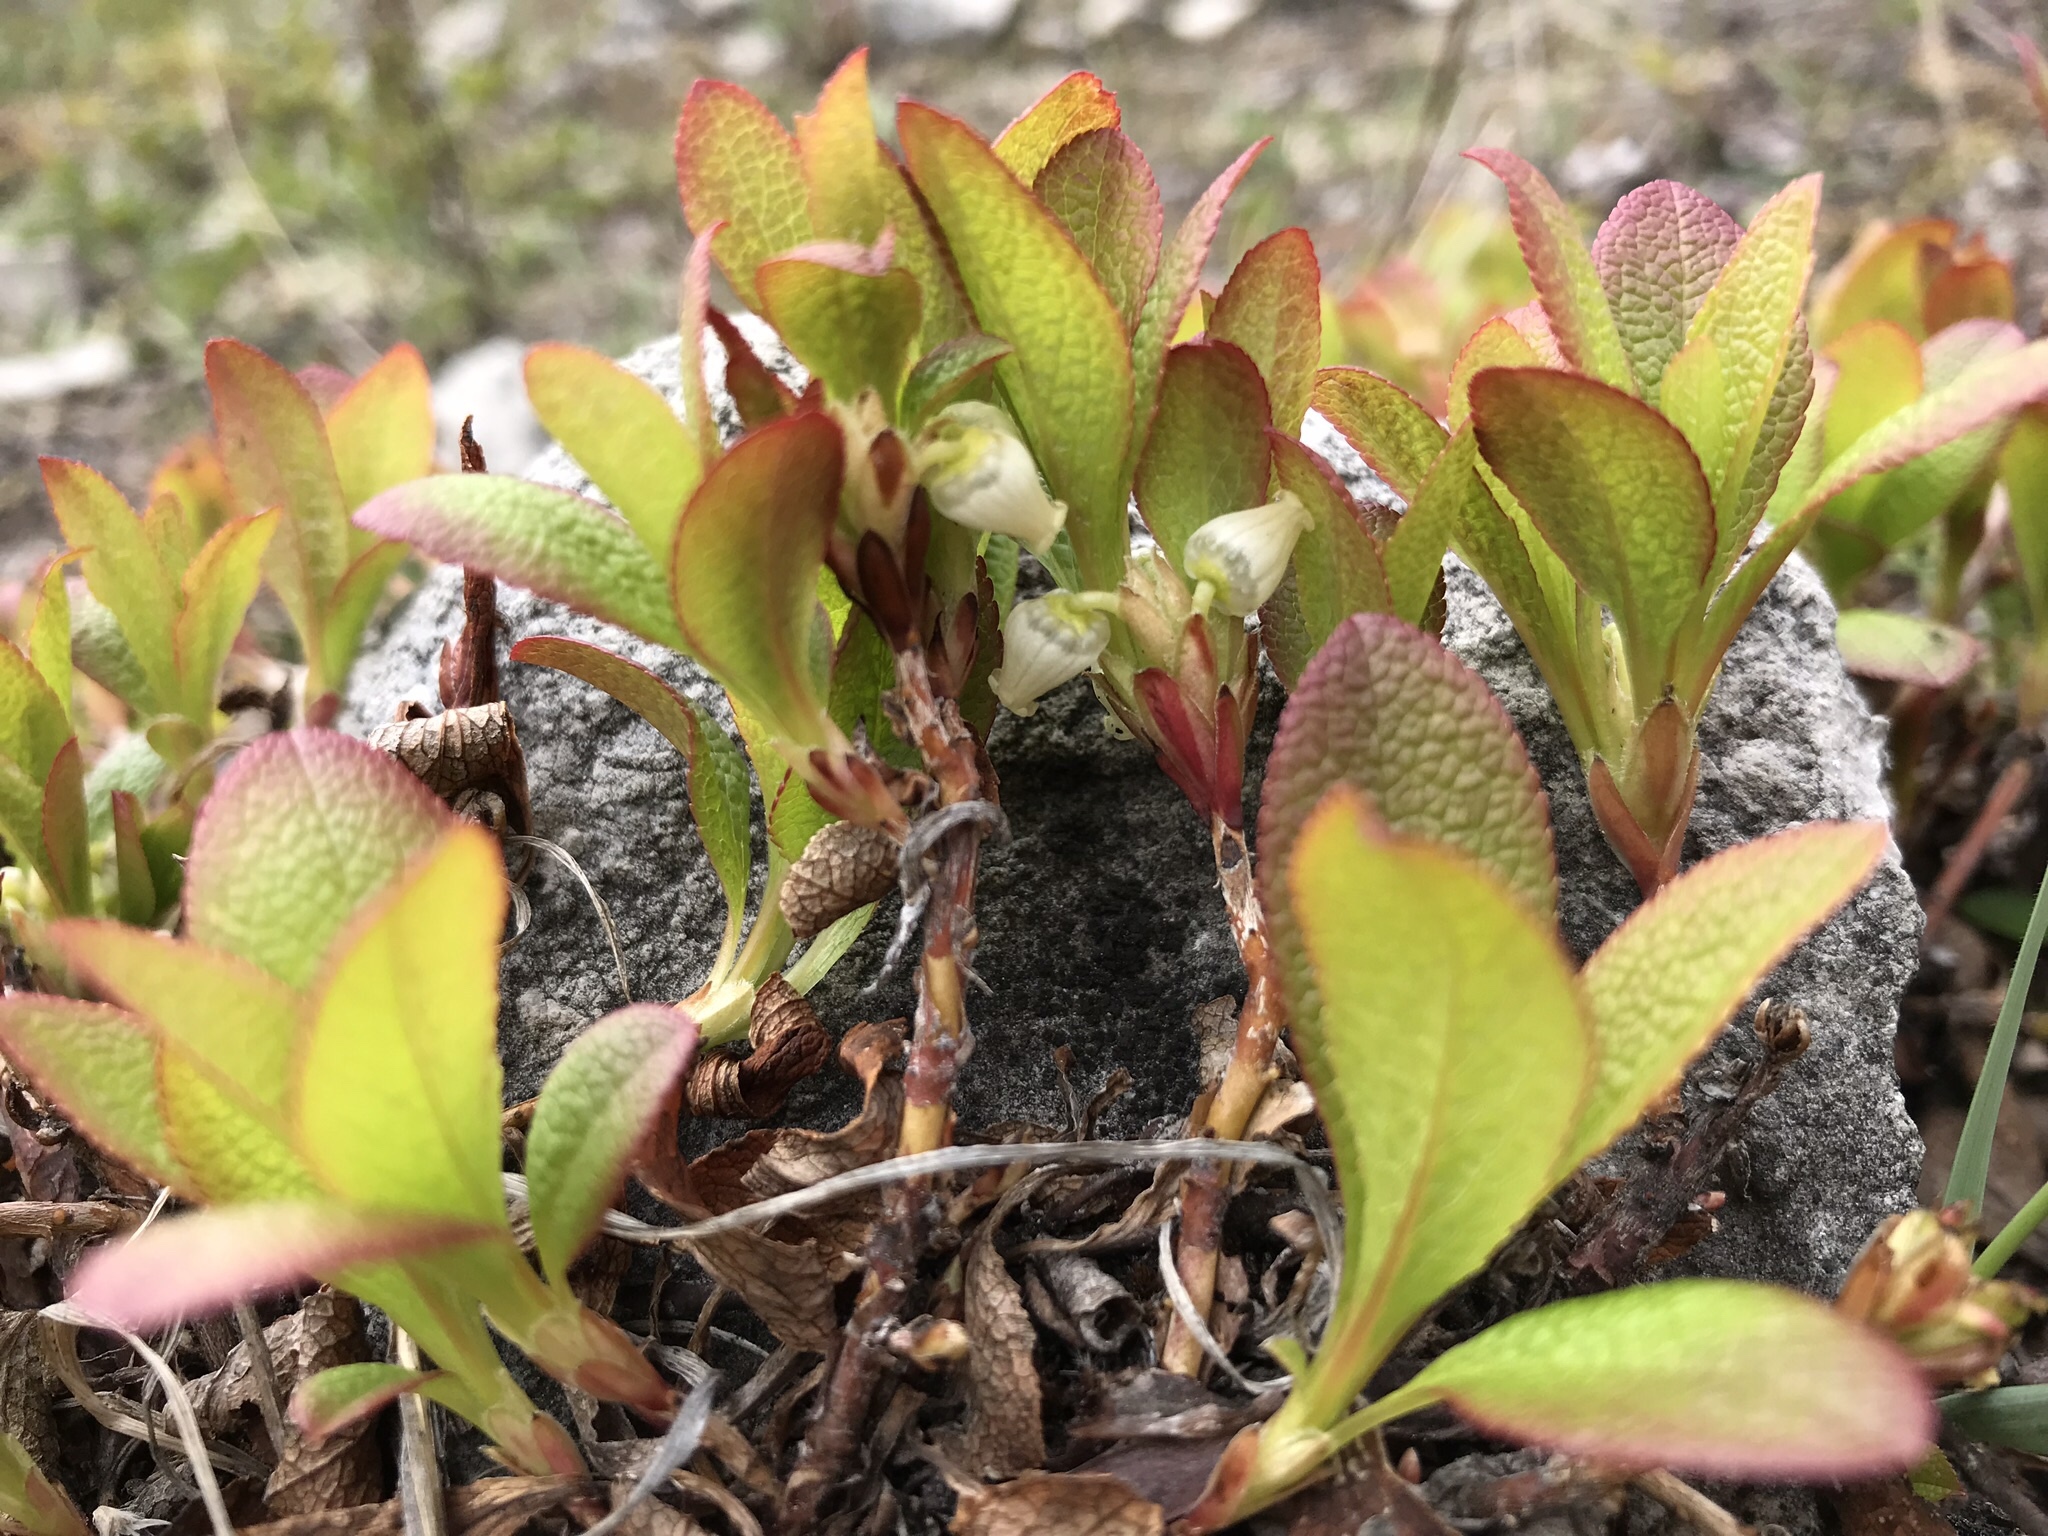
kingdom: Plantae
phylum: Tracheophyta
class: Magnoliopsida
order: Ericales
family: Ericaceae
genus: Arctostaphylos
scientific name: Arctostaphylos rubra
